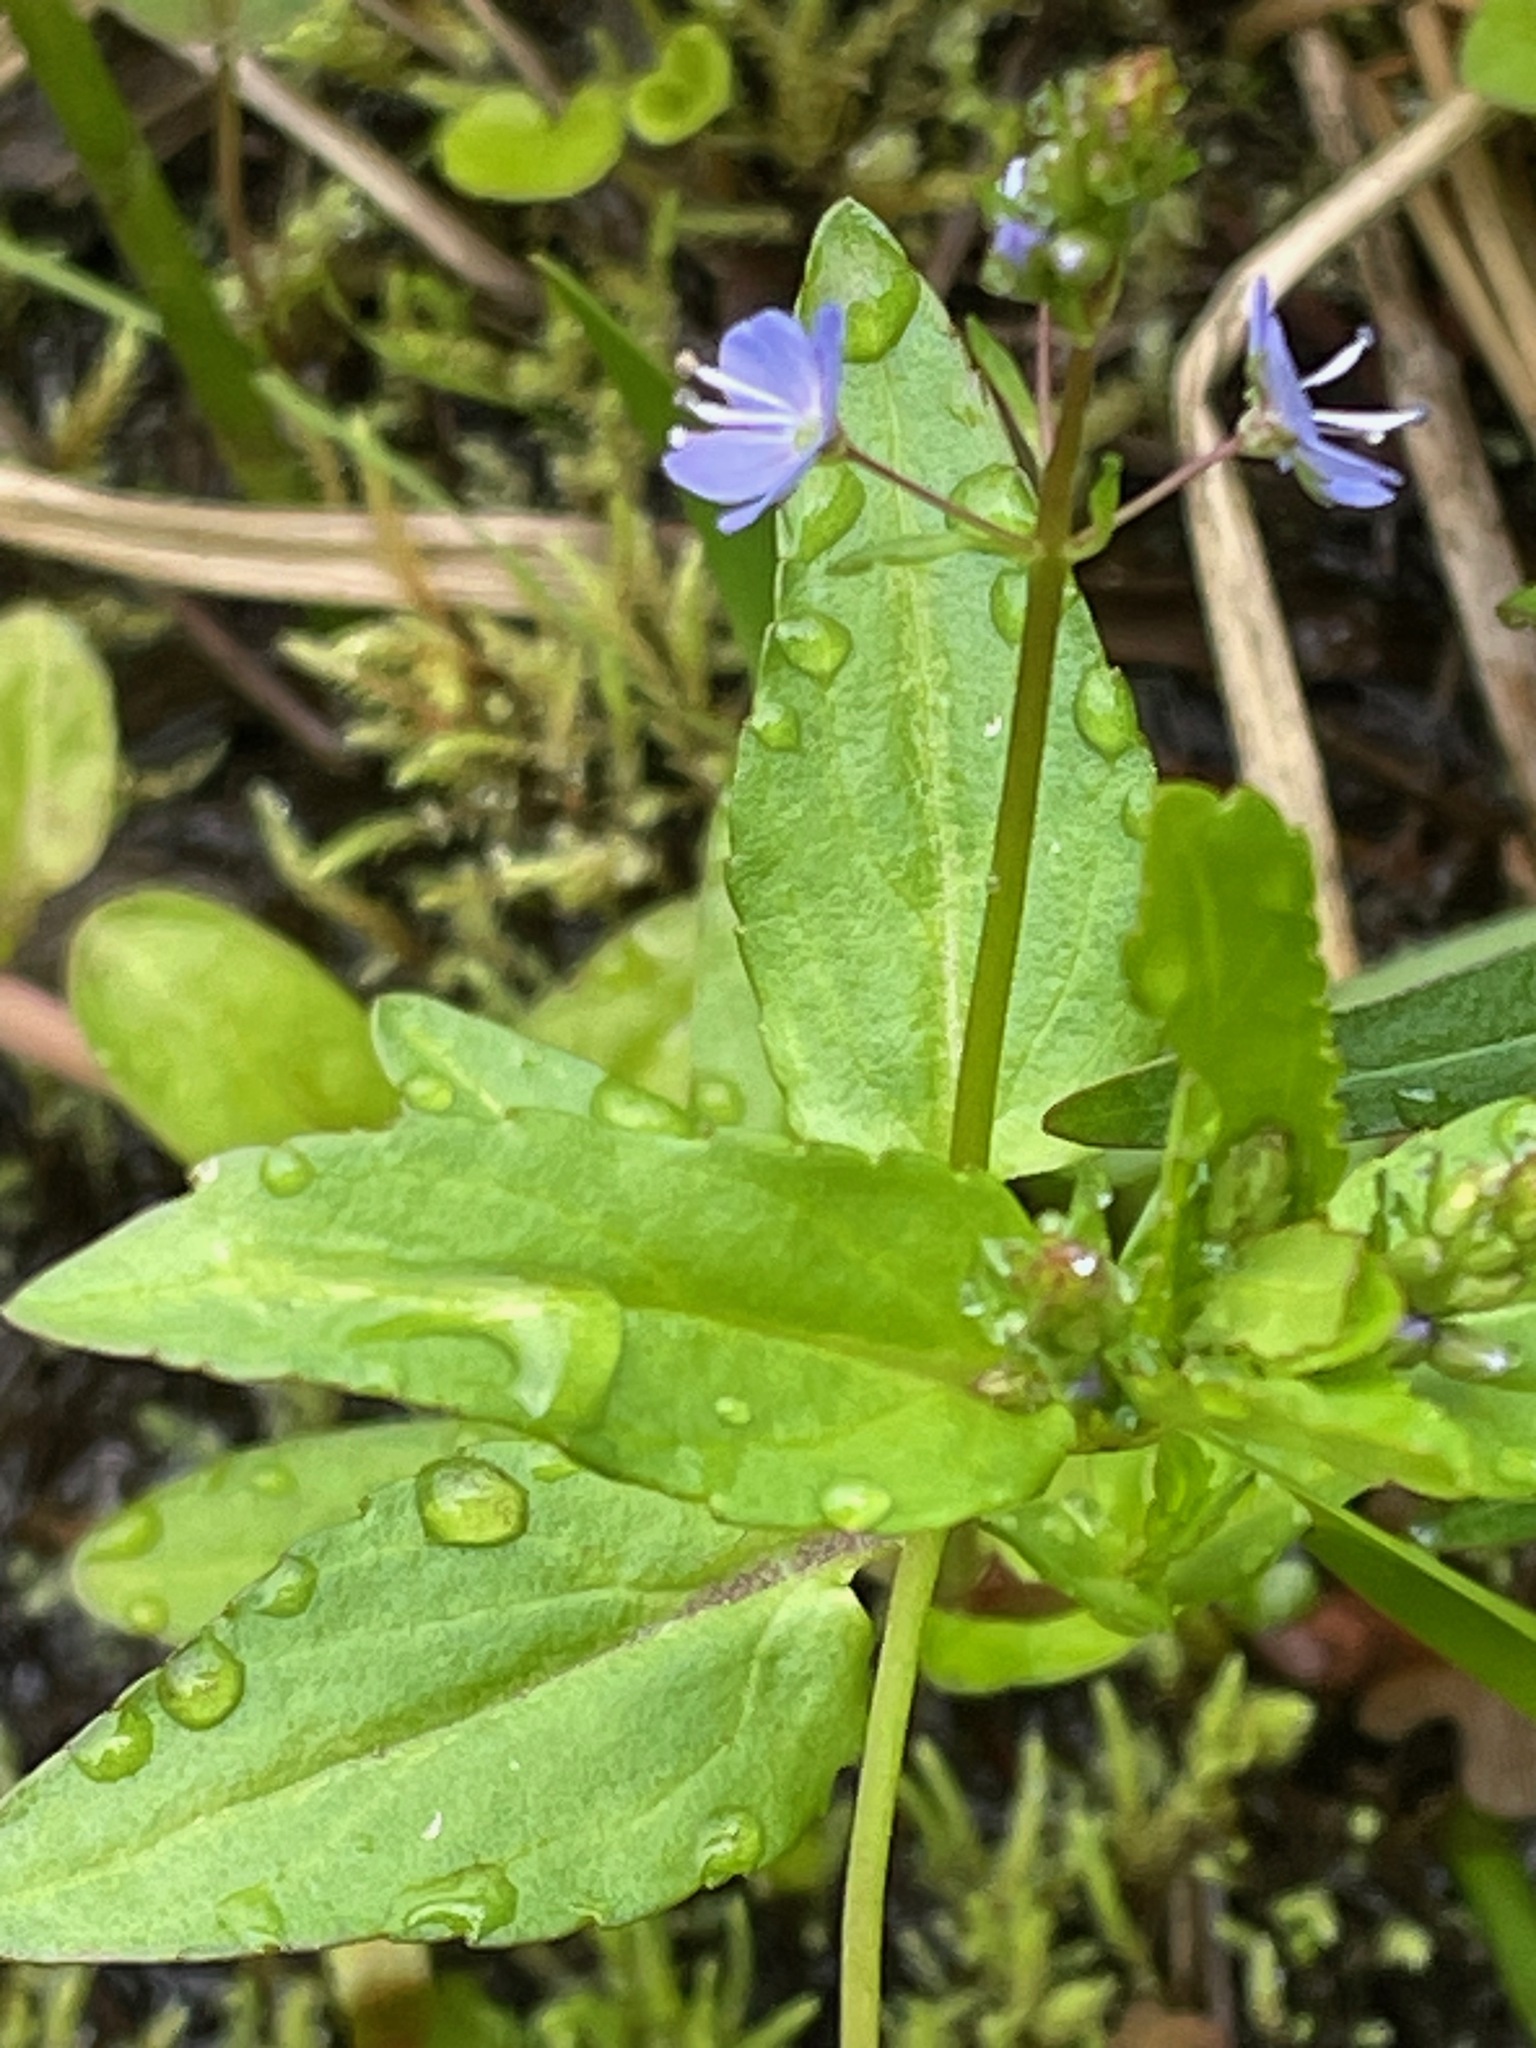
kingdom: Plantae
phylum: Tracheophyta
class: Magnoliopsida
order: Lamiales
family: Plantaginaceae
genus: Veronica
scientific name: Veronica americana
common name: American brooklime
